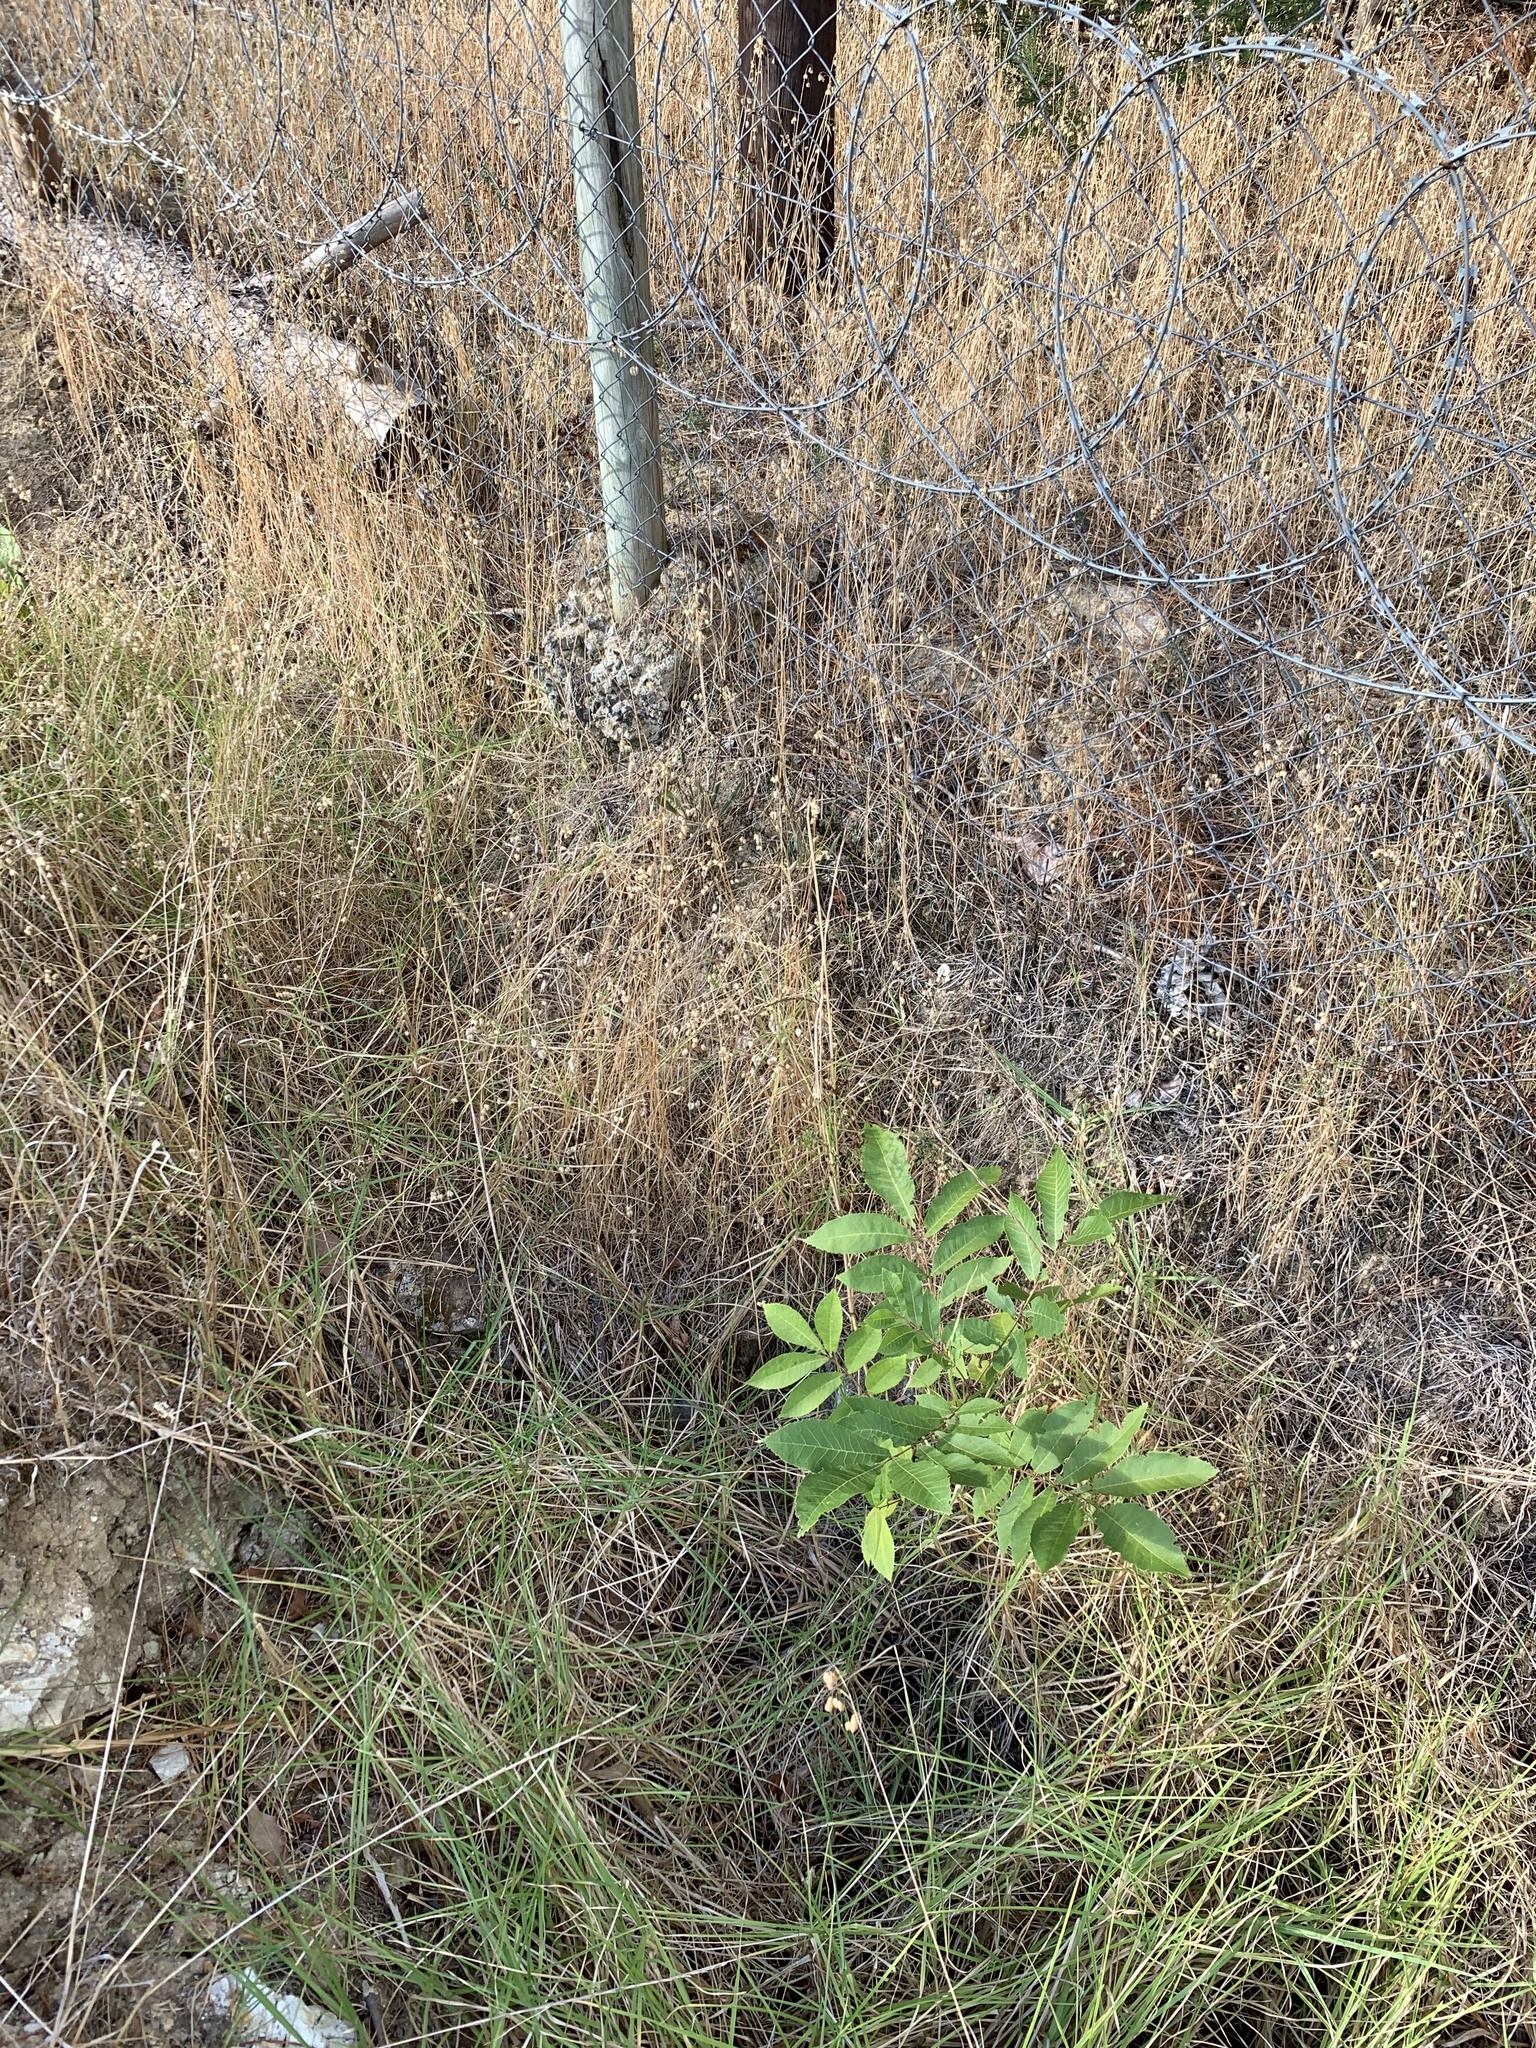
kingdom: Plantae
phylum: Tracheophyta
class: Magnoliopsida
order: Fagales
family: Juglandaceae
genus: Carya
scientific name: Carya illinoinensis
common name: Pecan
